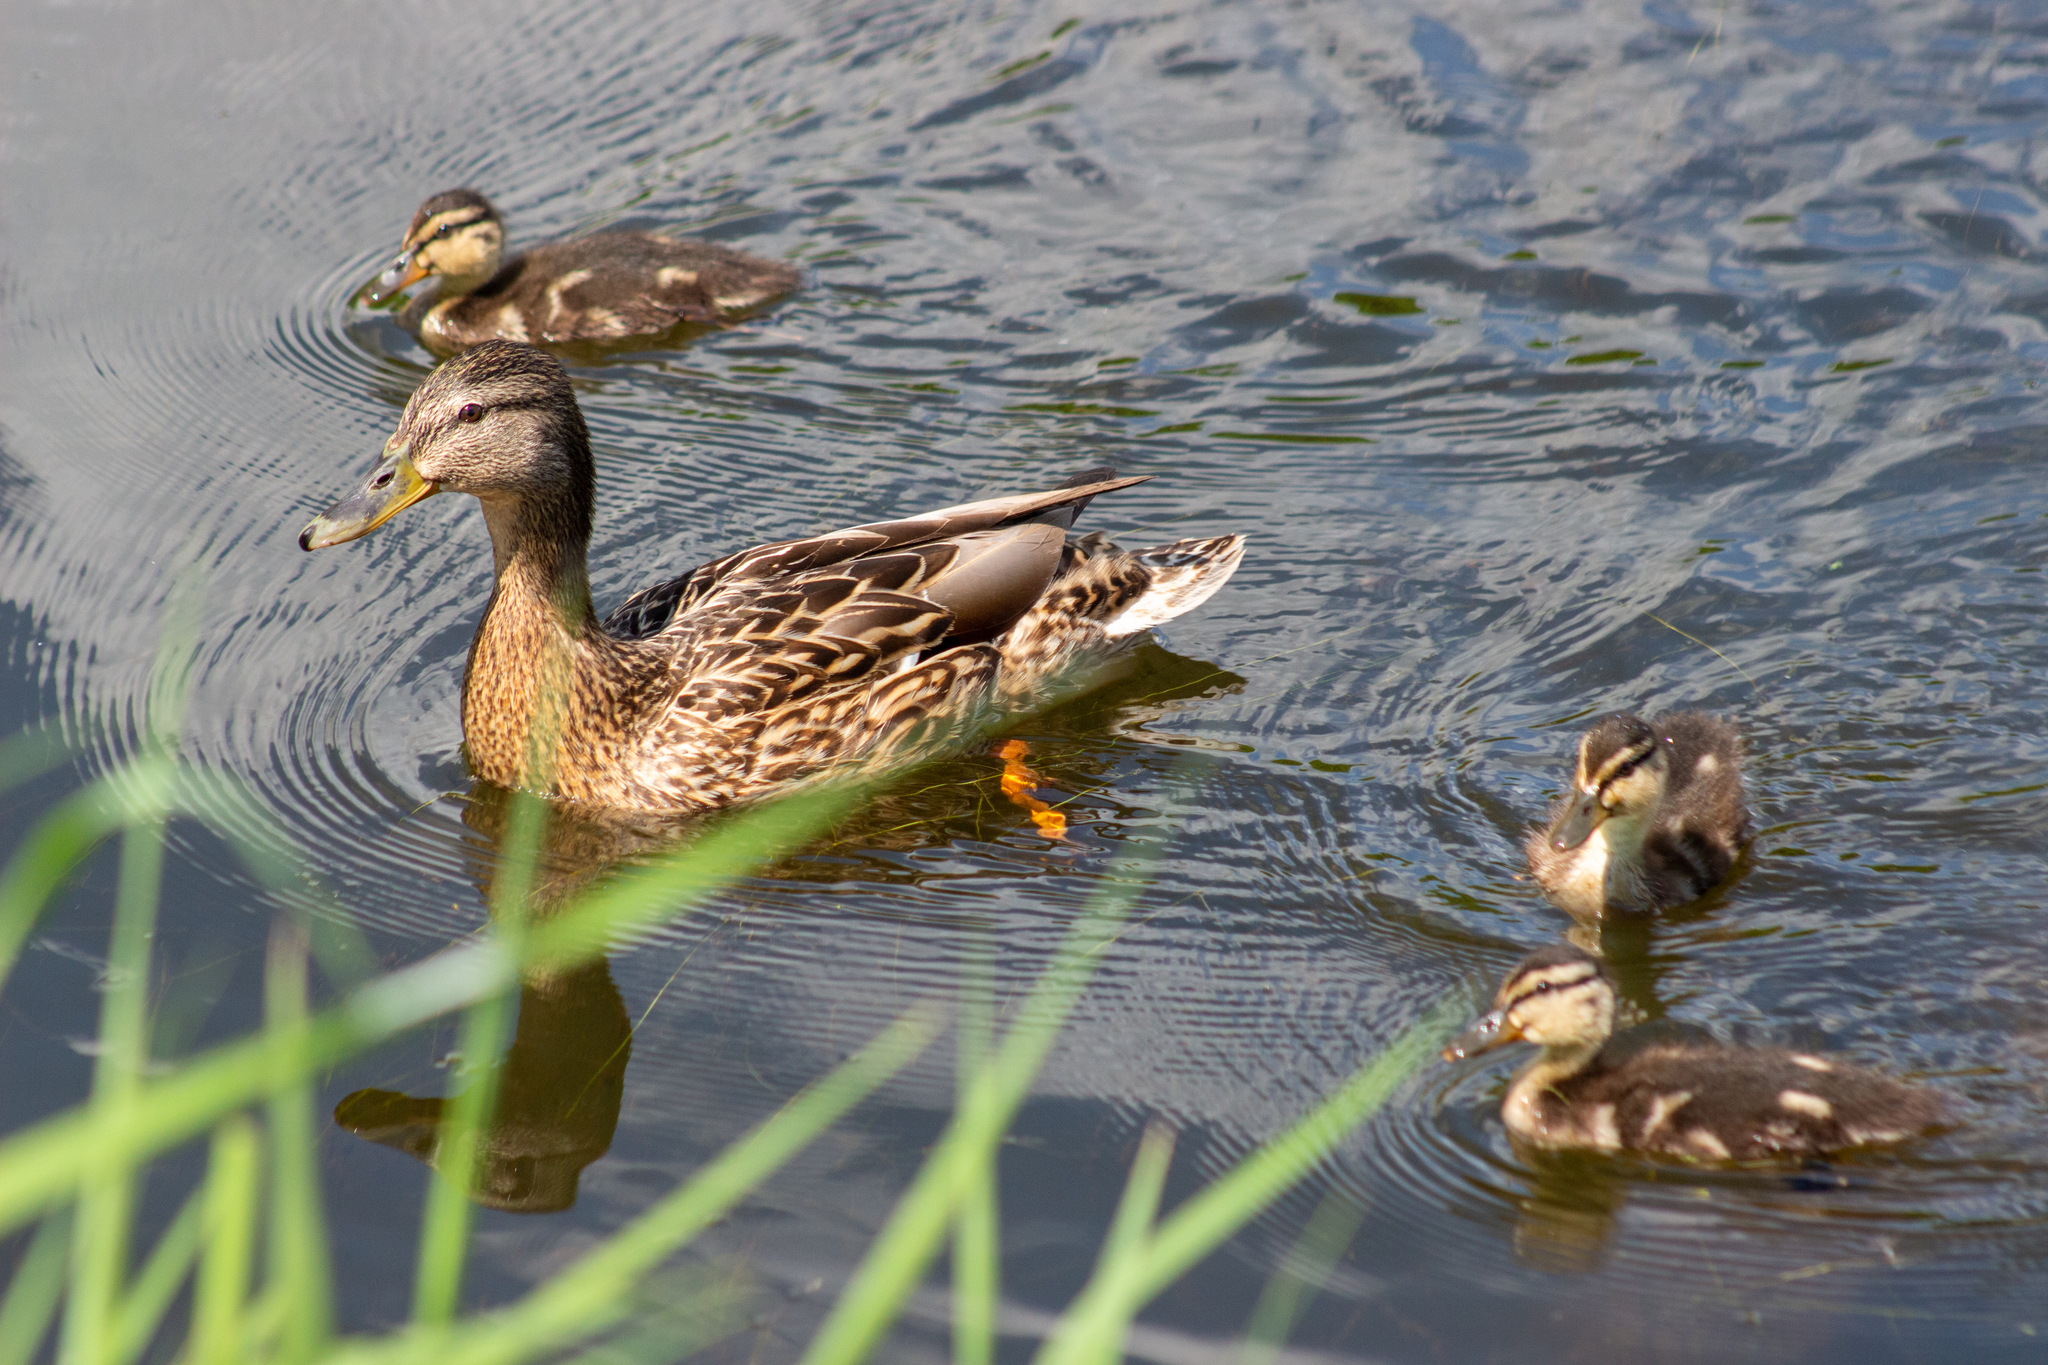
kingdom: Animalia
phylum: Chordata
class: Aves
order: Anseriformes
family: Anatidae
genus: Anas
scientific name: Anas platyrhynchos
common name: Mallard
